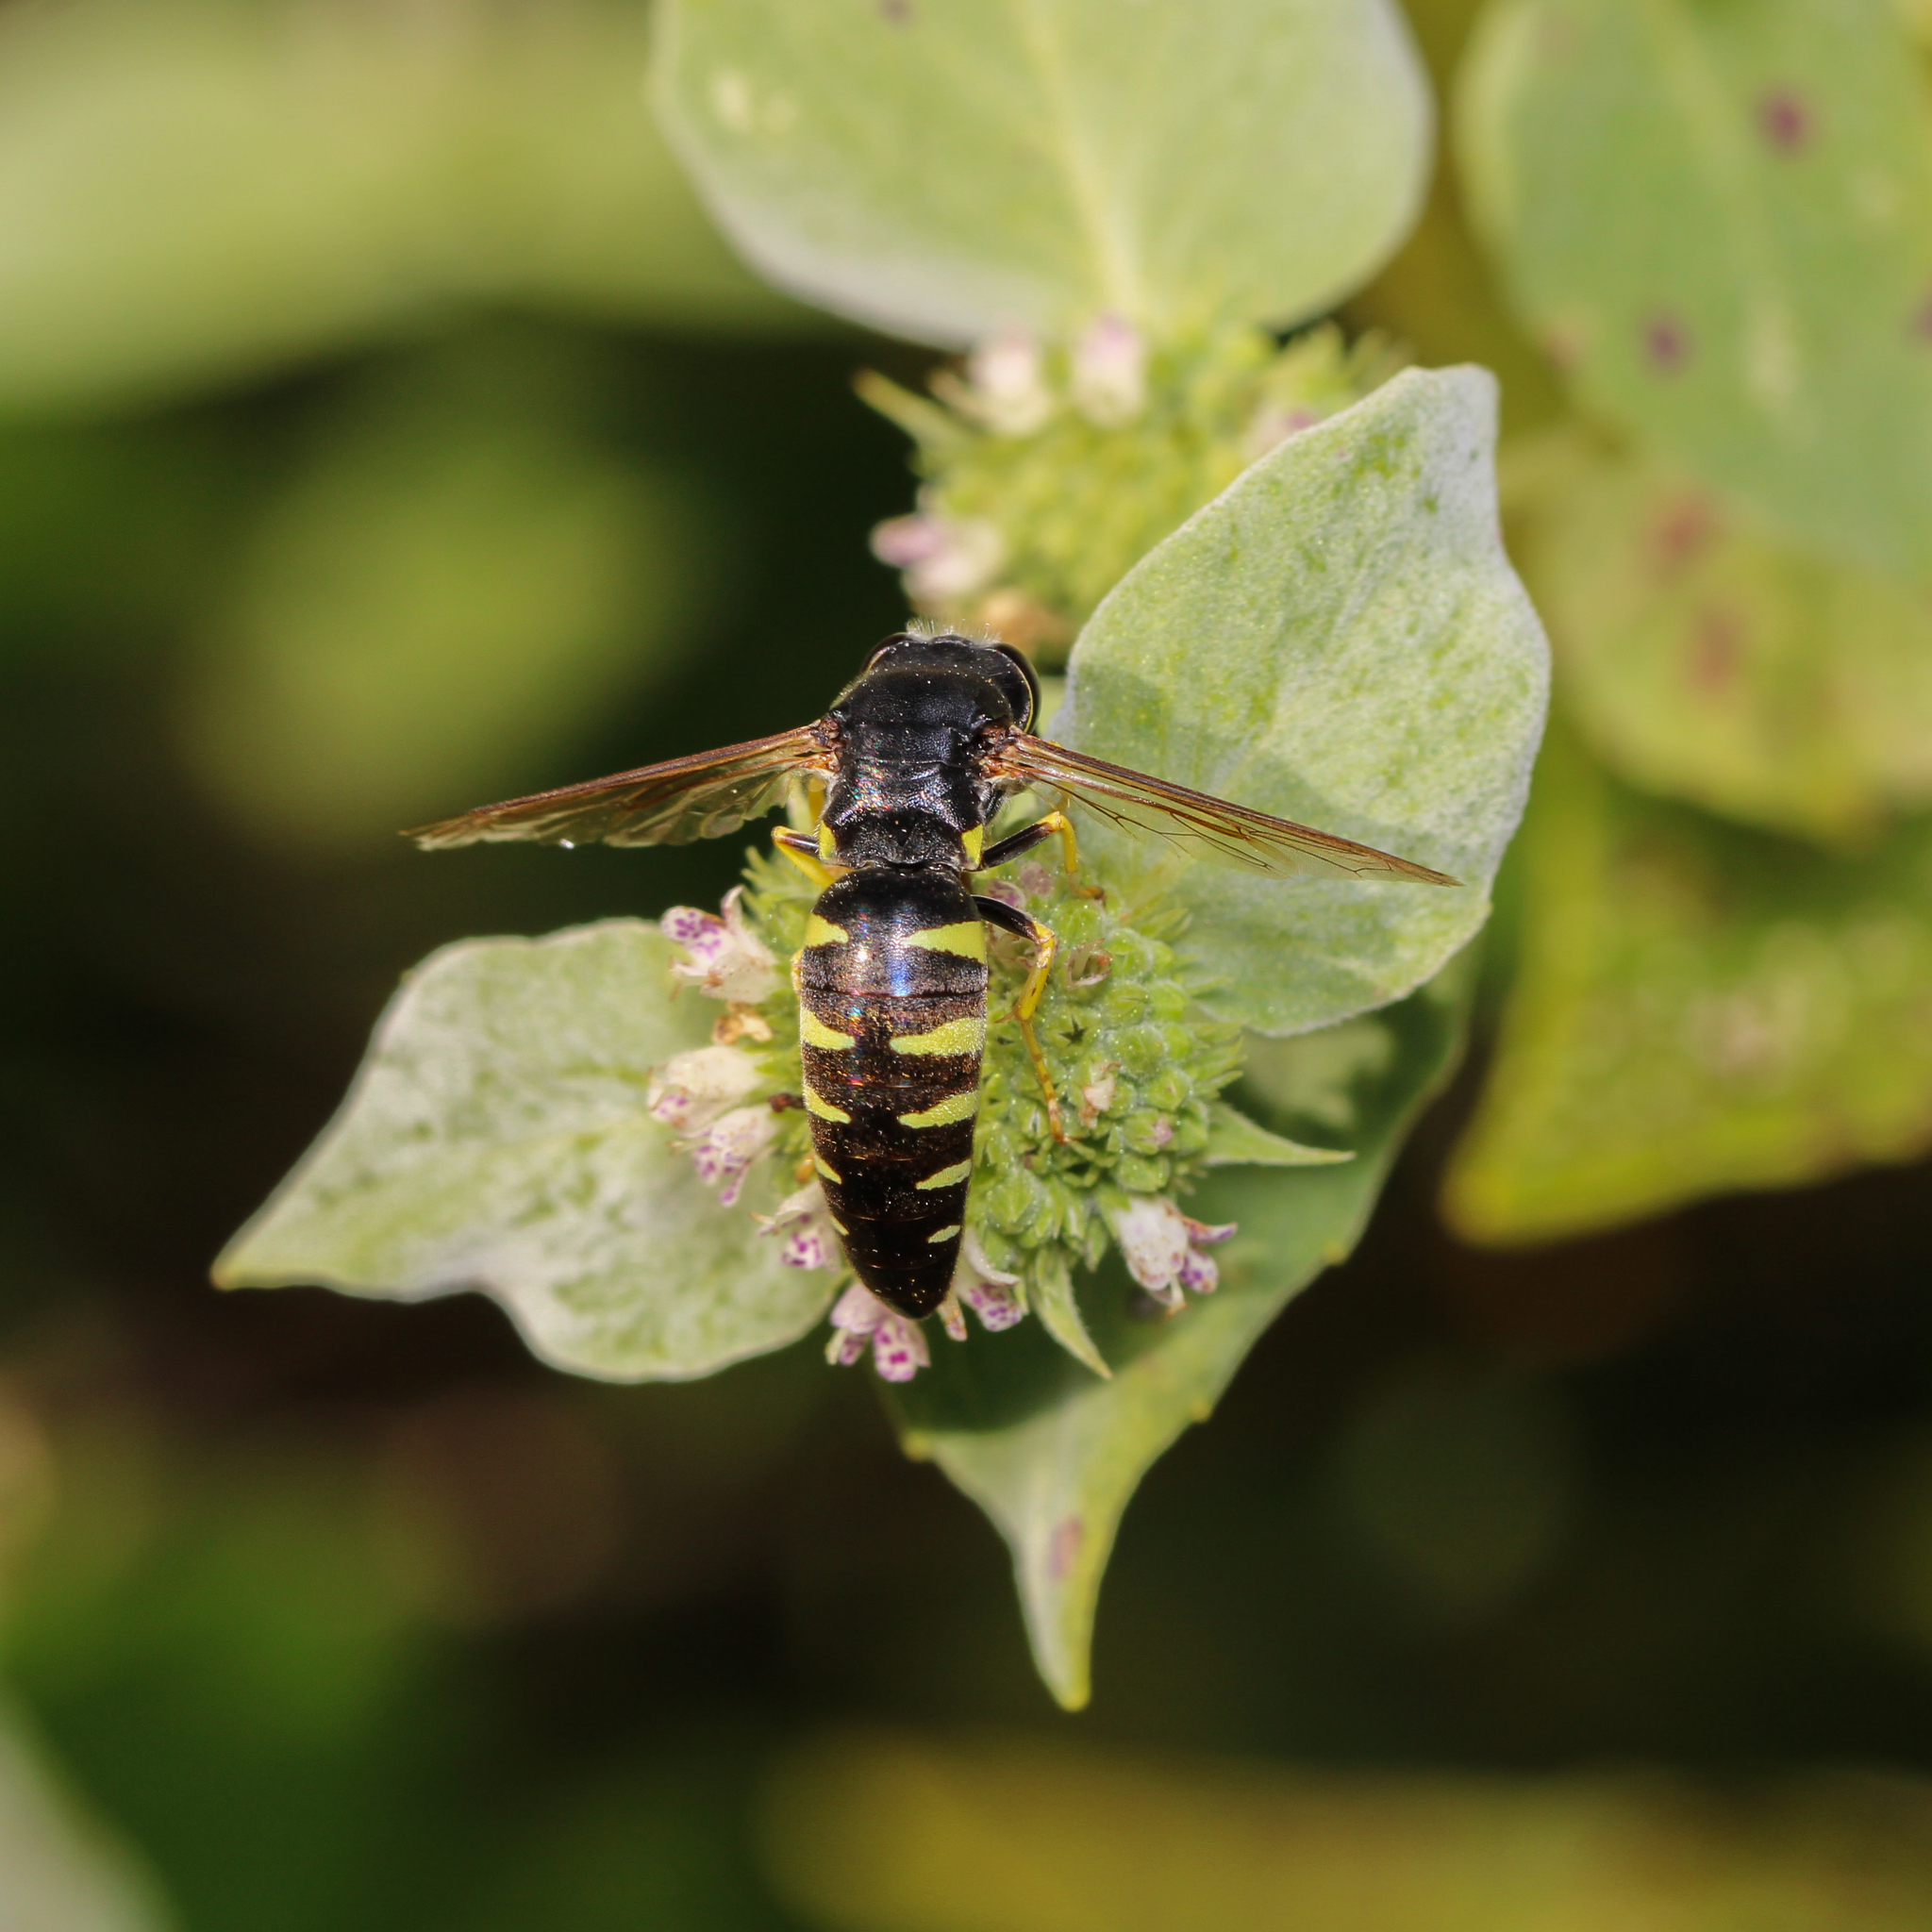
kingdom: Animalia
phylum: Arthropoda
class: Insecta
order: Hymenoptera
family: Crabronidae
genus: Bicyrtes
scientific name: Bicyrtes quadrifasciatus
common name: Four-banded stink bug hunter wasp
